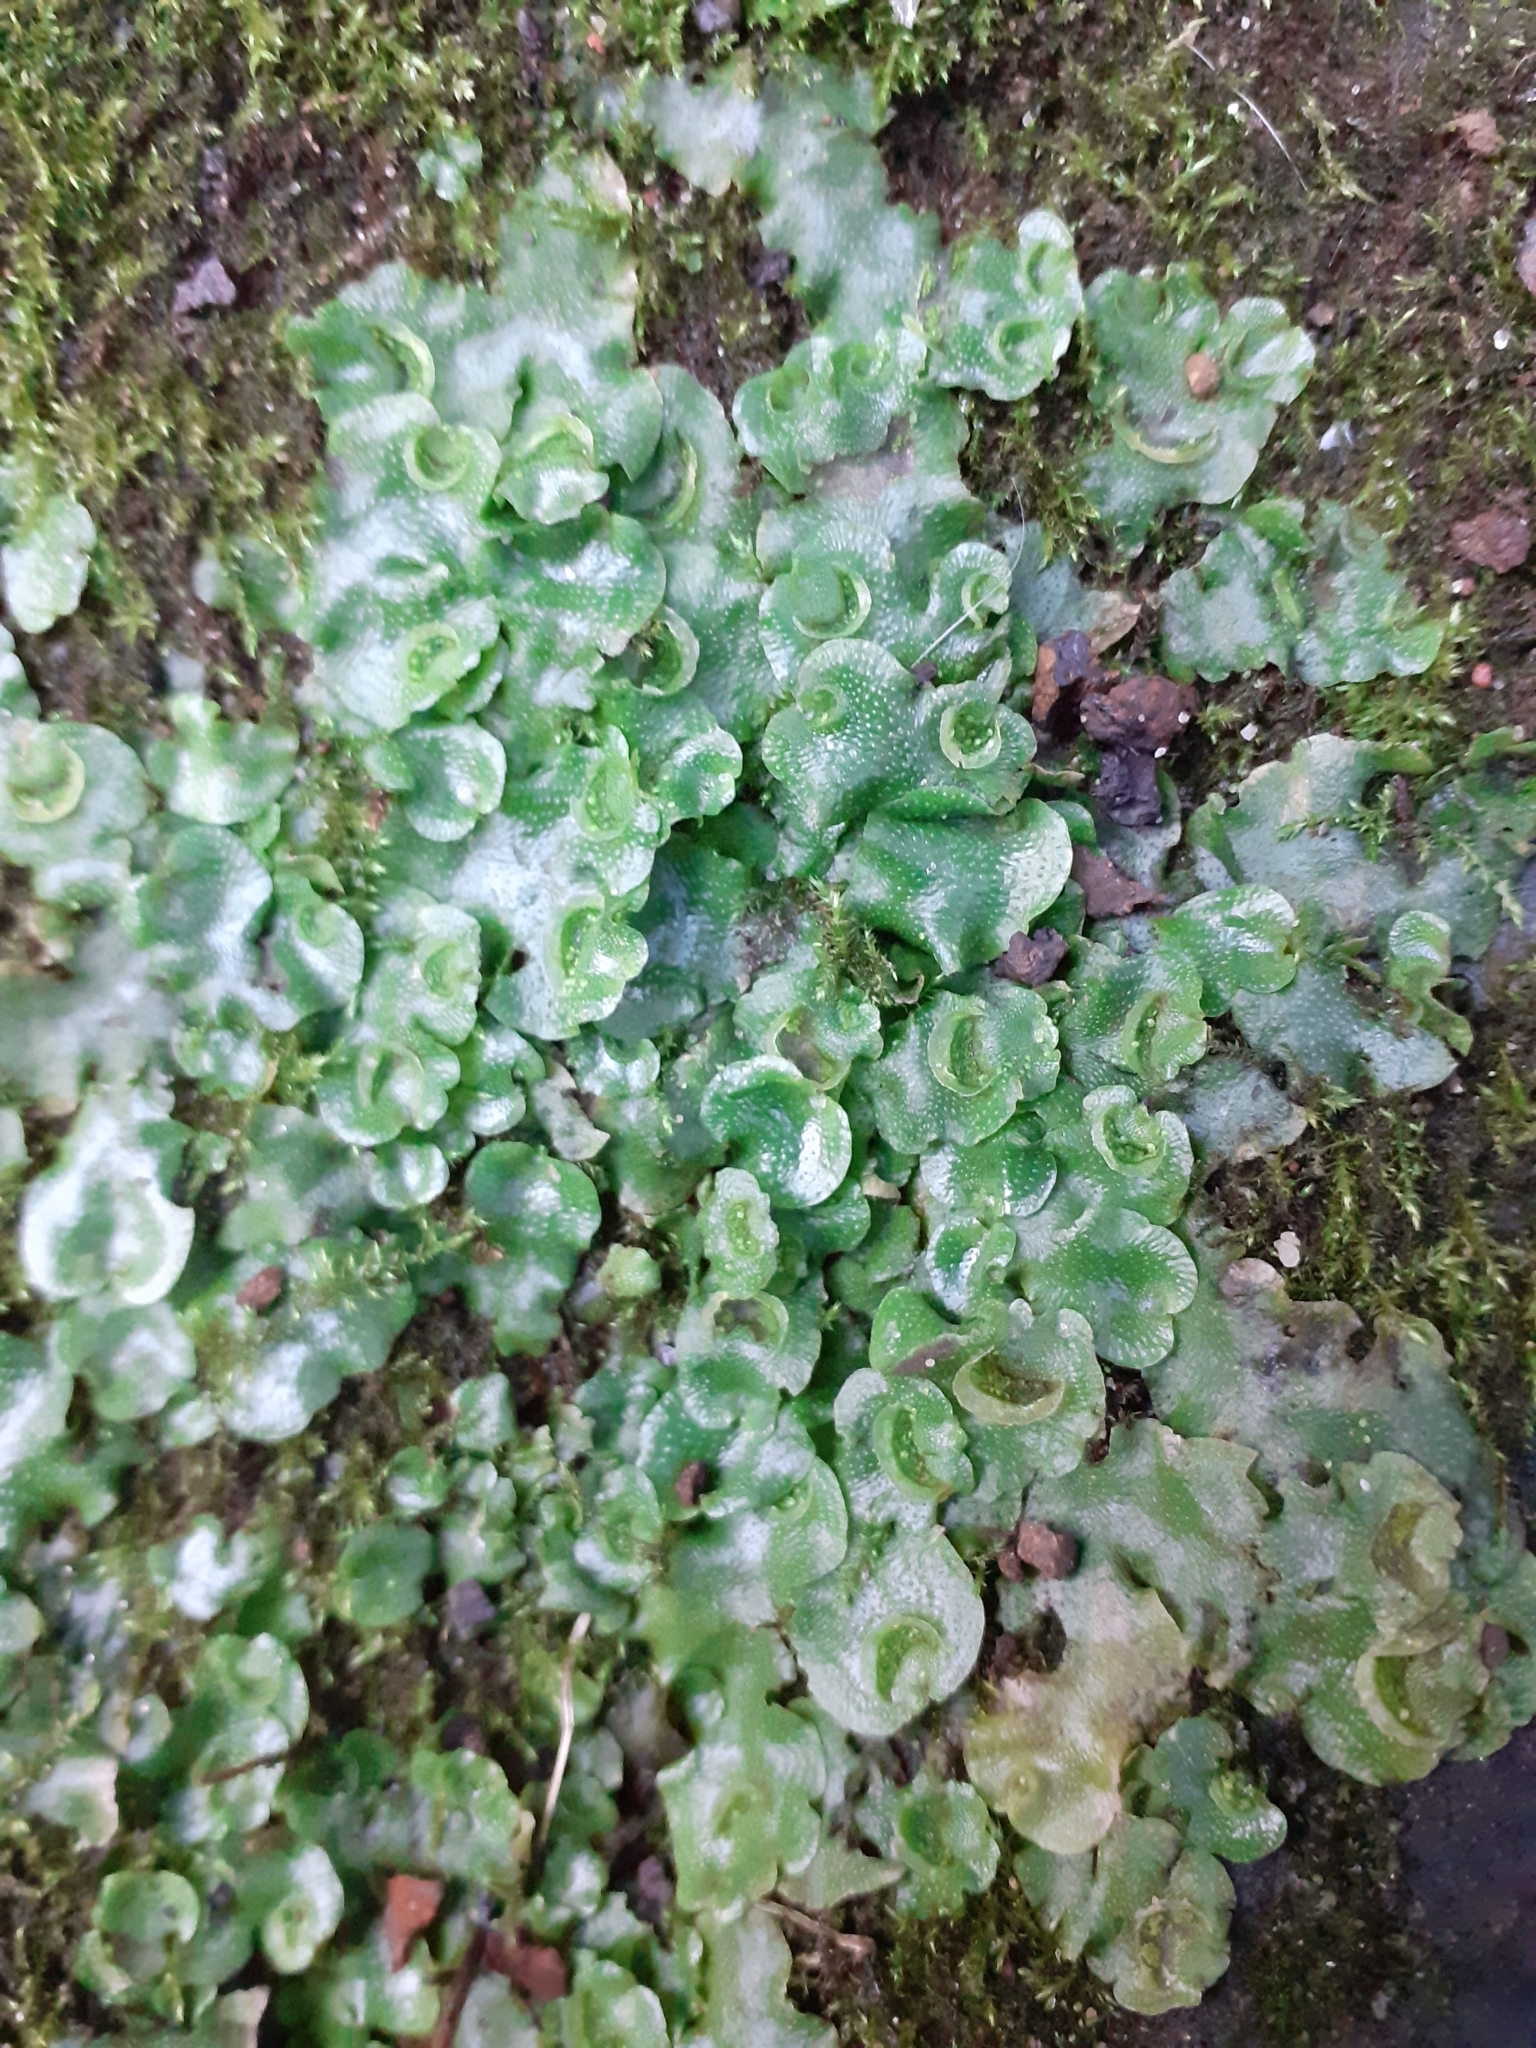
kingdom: Plantae
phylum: Marchantiophyta
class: Marchantiopsida
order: Lunulariales
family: Lunulariaceae
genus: Lunularia
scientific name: Lunularia cruciata
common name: Crescent-cup liverwort
